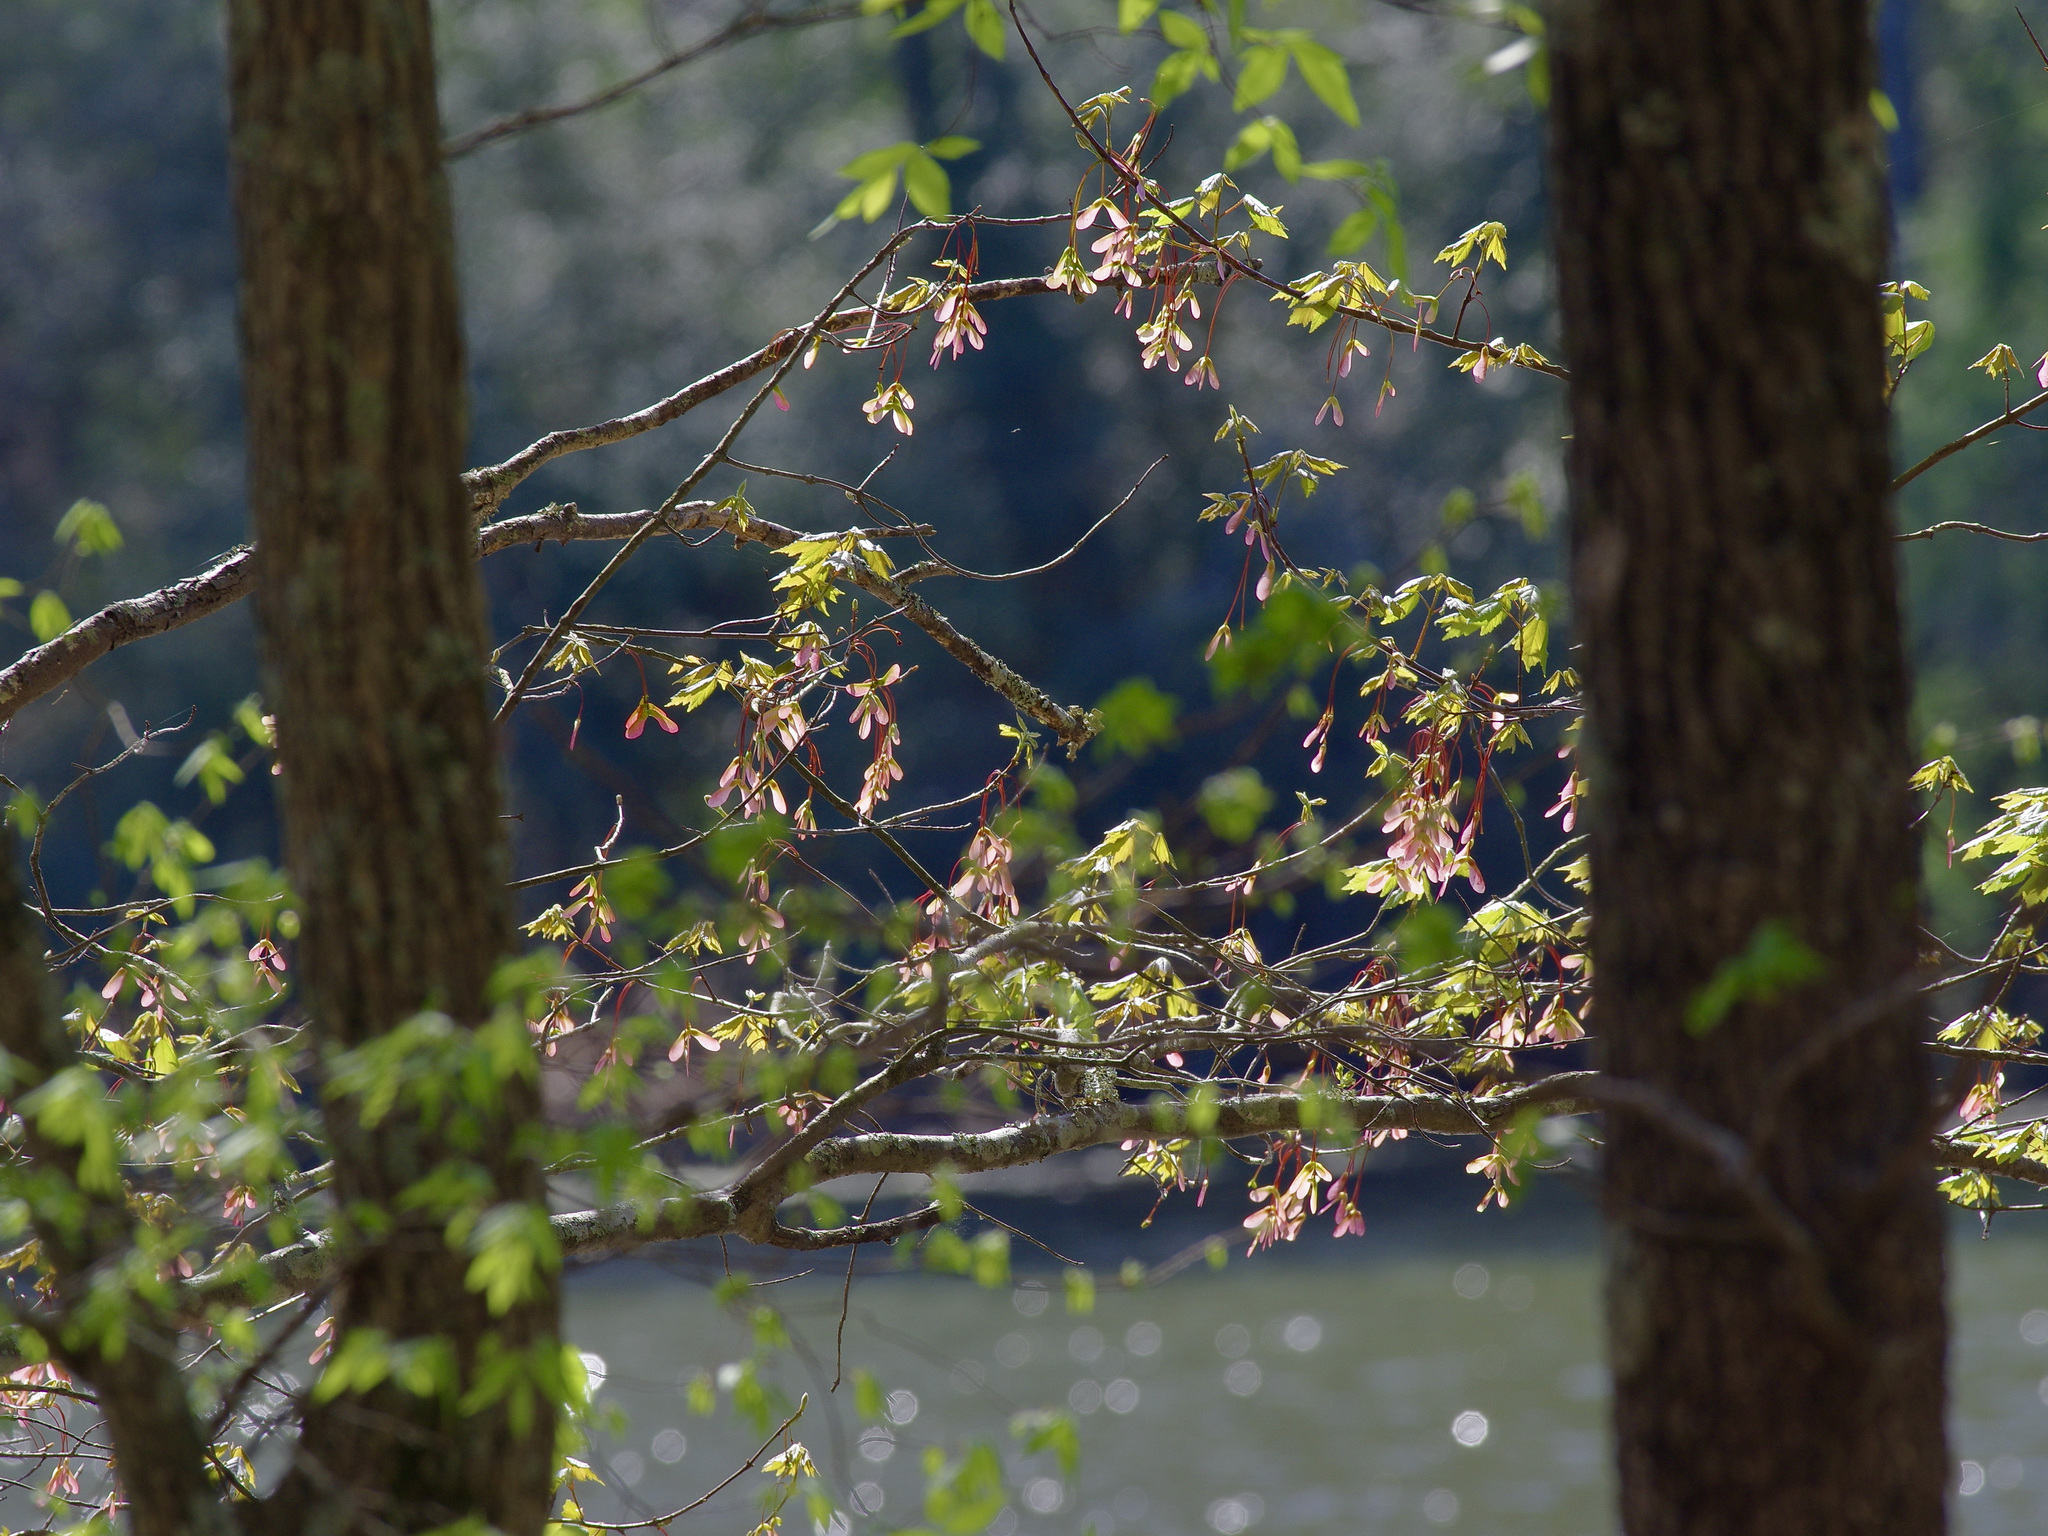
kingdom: Plantae
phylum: Tracheophyta
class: Magnoliopsida
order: Sapindales
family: Sapindaceae
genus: Acer
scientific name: Acer rubrum
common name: Red maple
